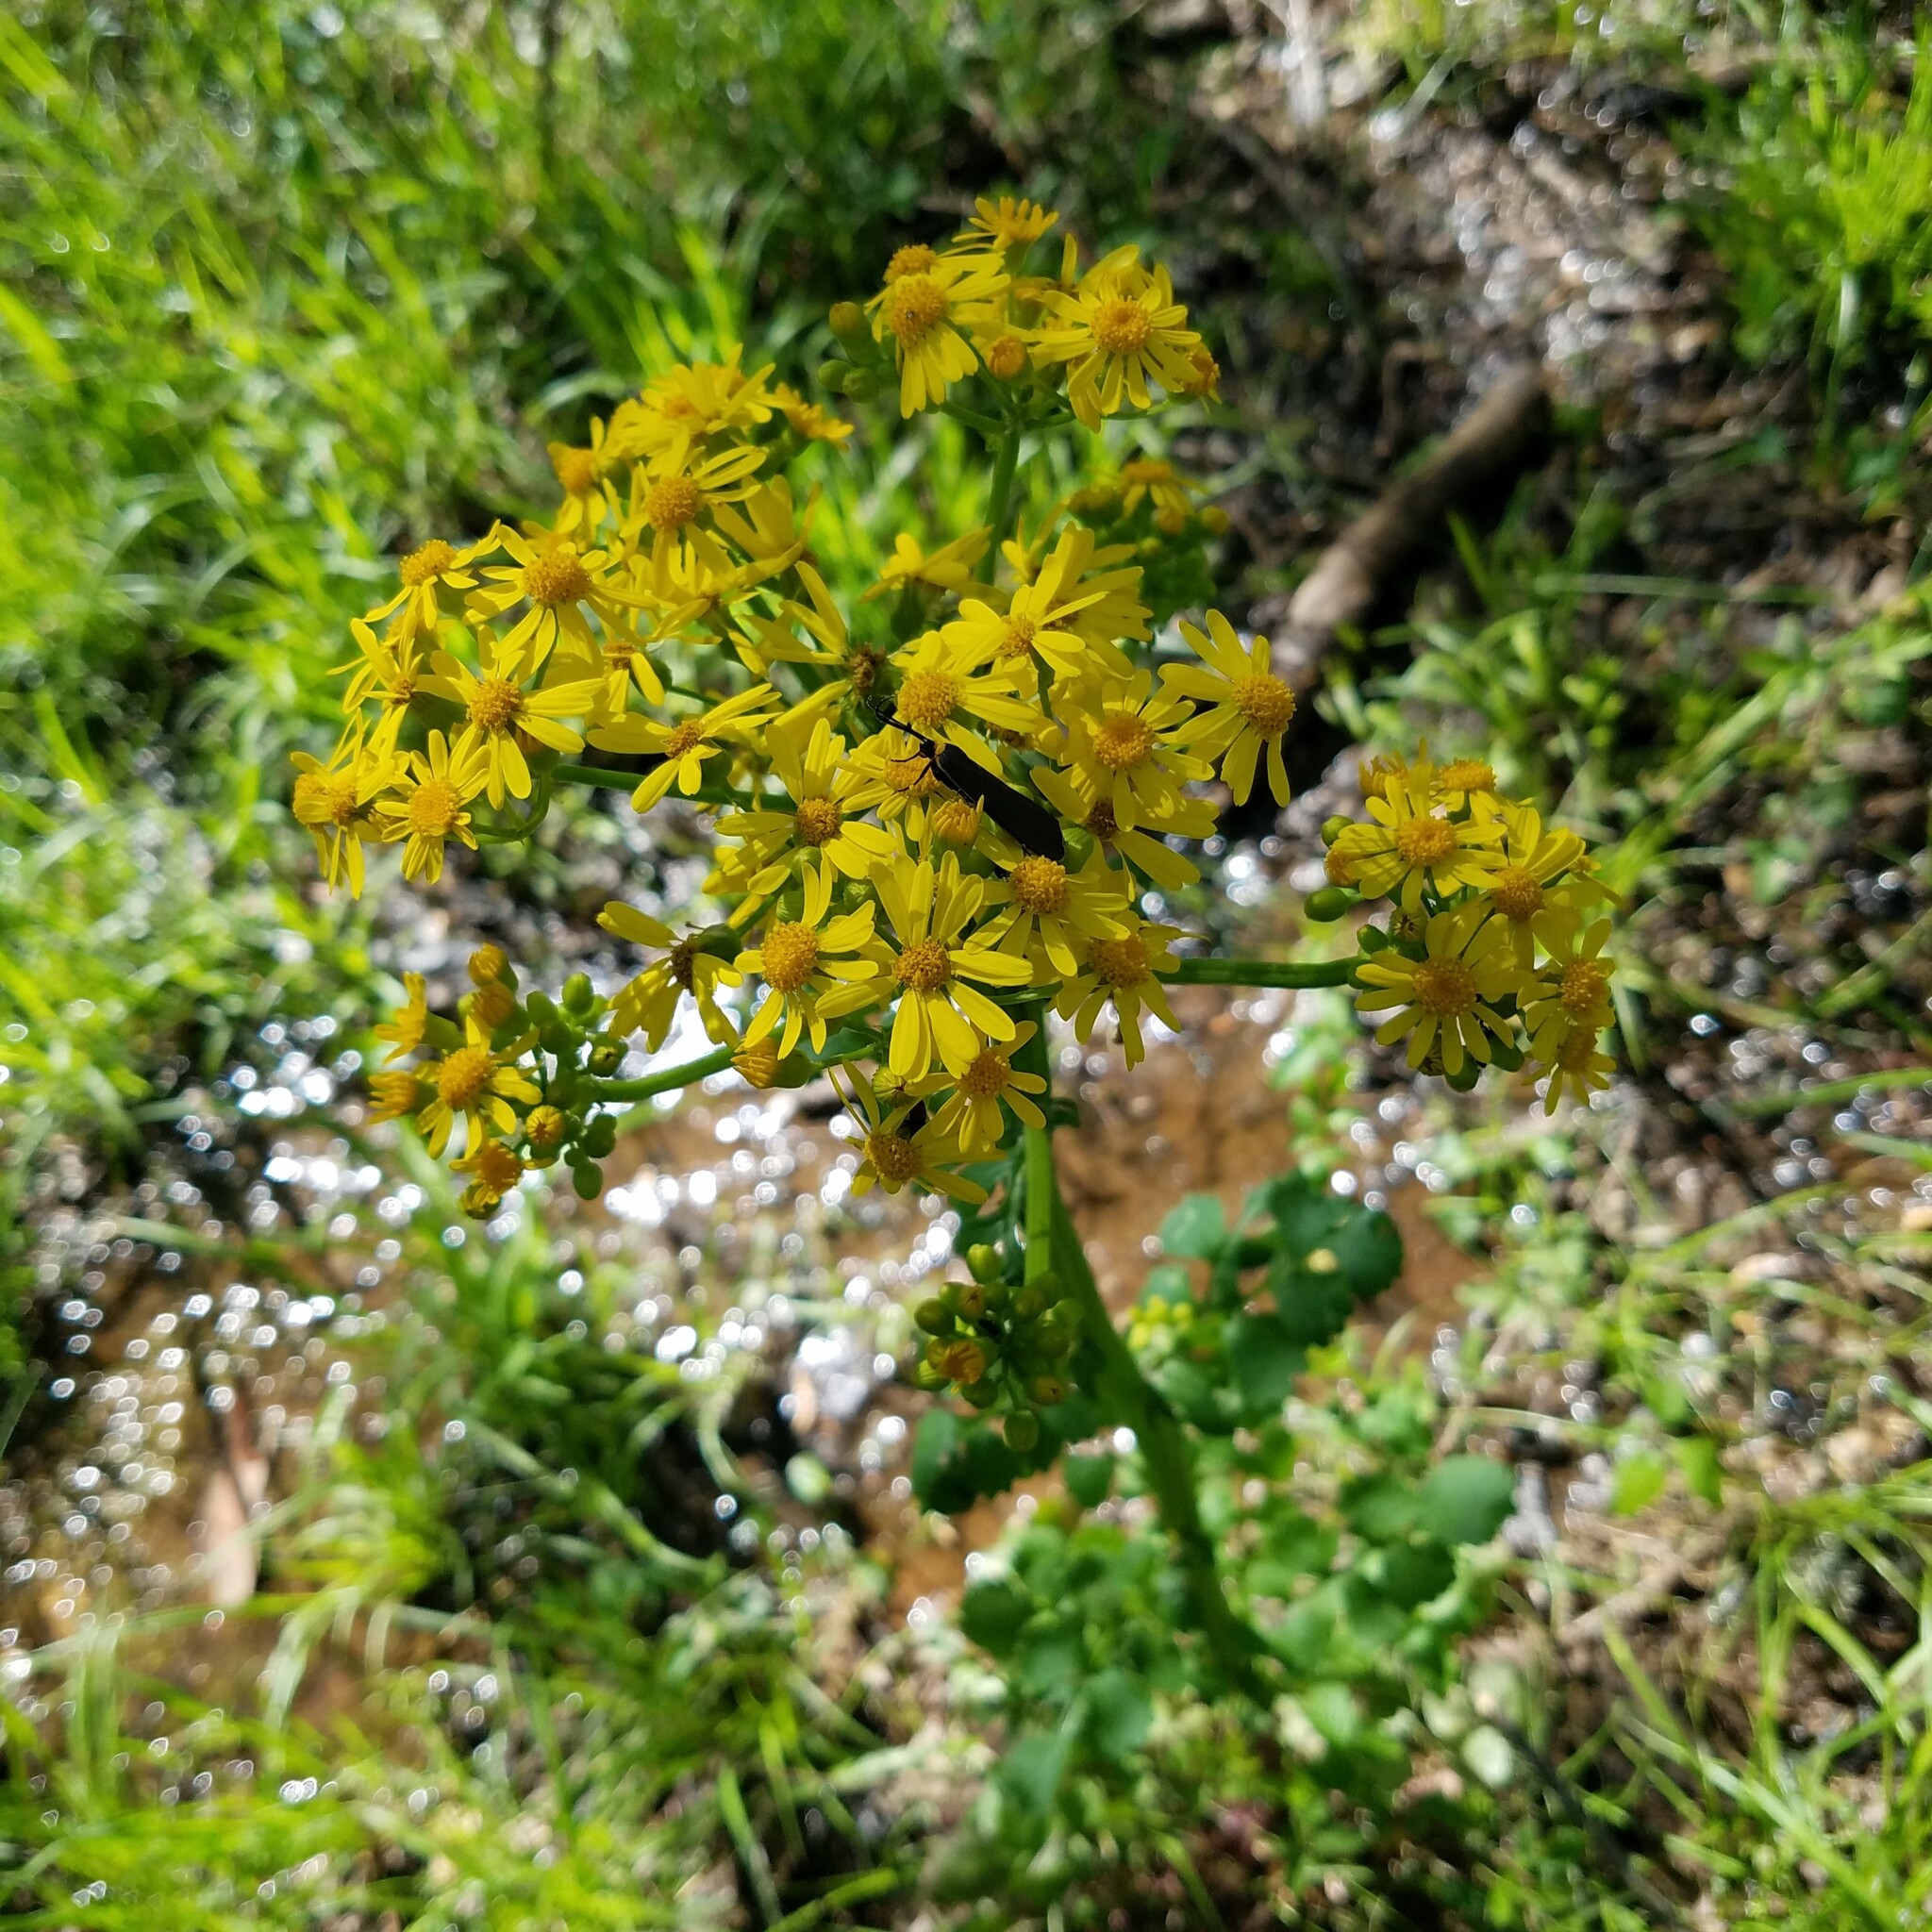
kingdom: Plantae
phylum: Tracheophyta
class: Magnoliopsida
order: Asterales
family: Asteraceae
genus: Packera
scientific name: Packera glabella
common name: Butterweed
